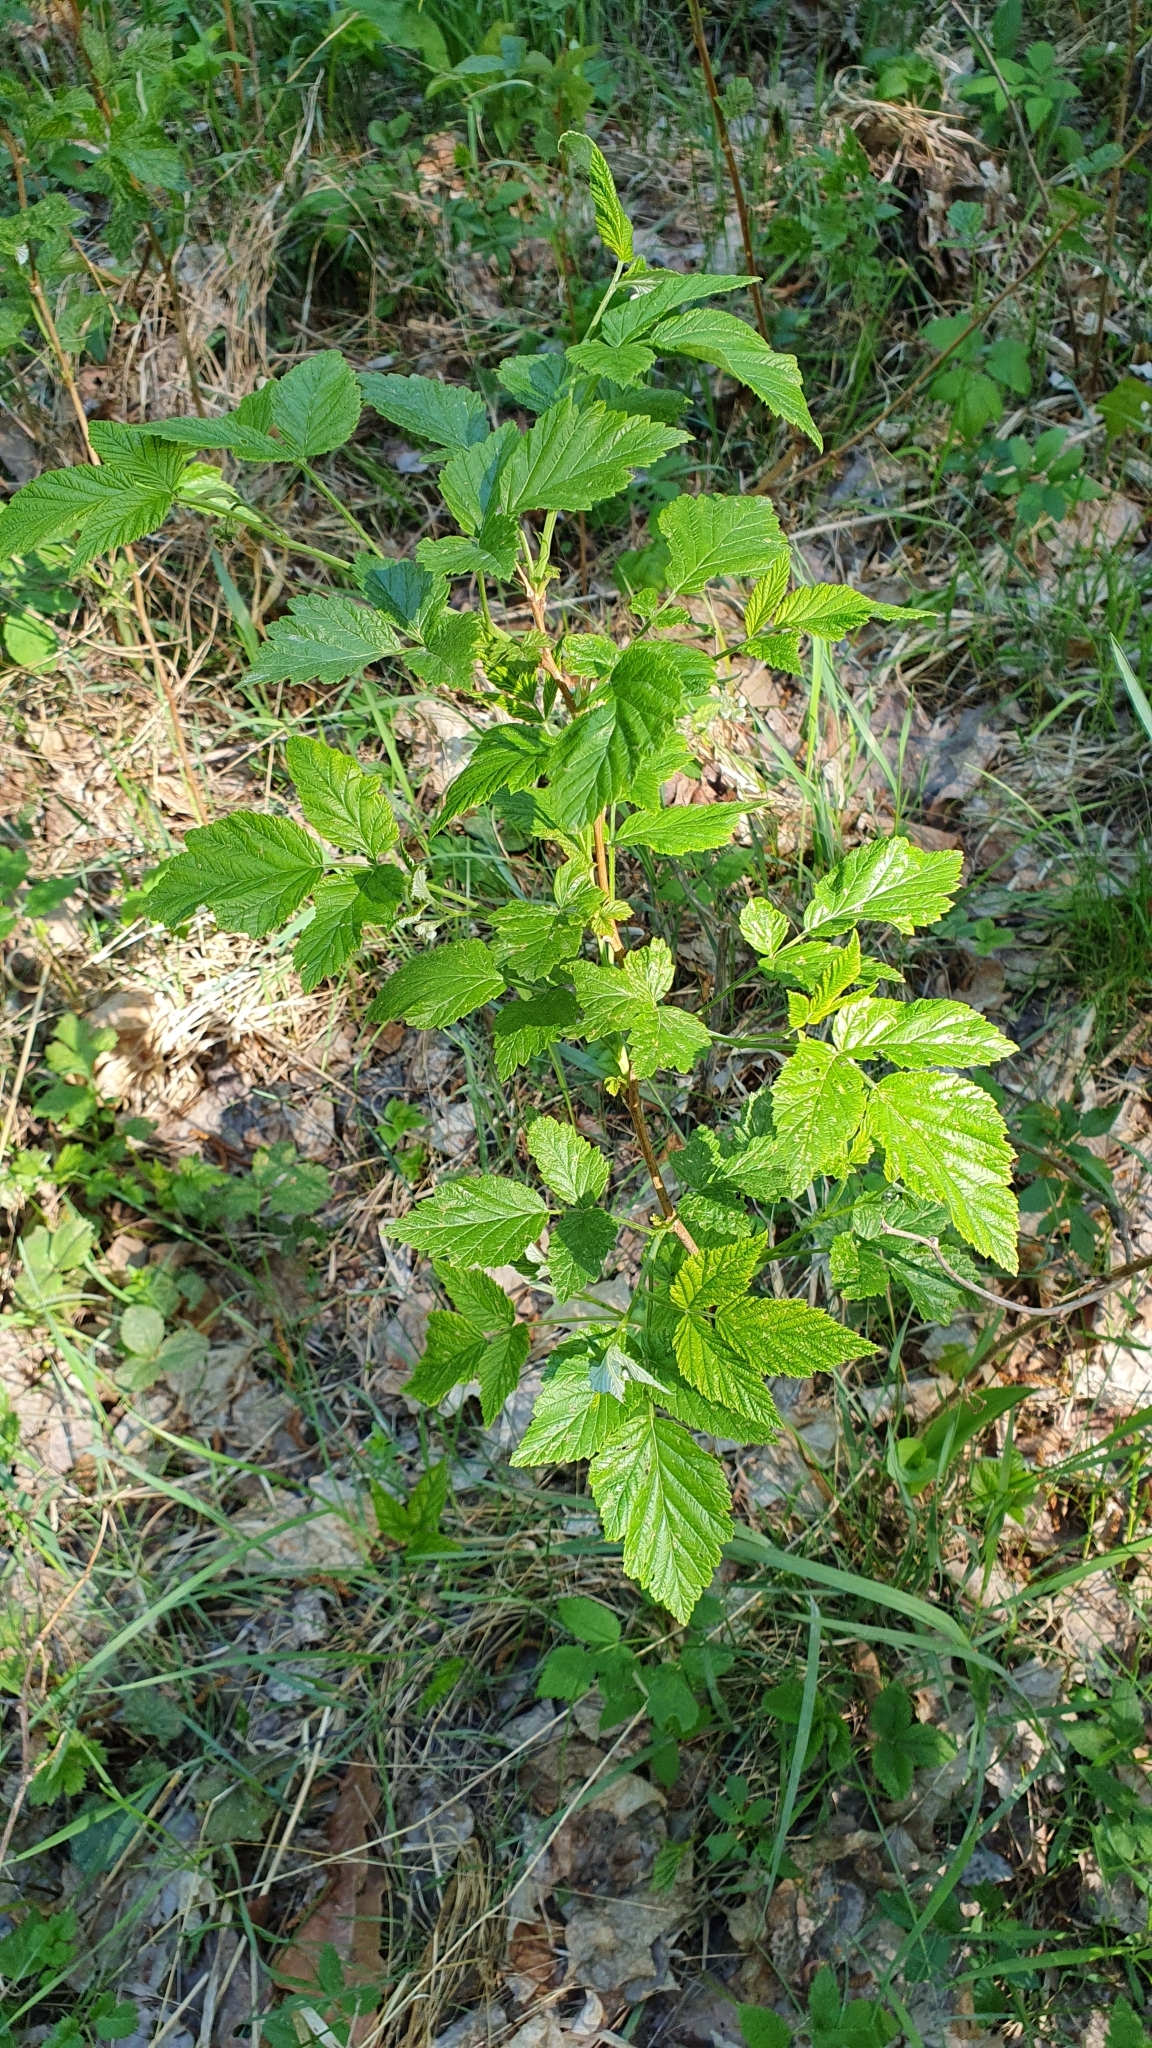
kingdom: Plantae
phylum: Tracheophyta
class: Magnoliopsida
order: Rosales
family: Rosaceae
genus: Rubus
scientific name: Rubus idaeus
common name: Raspberry
